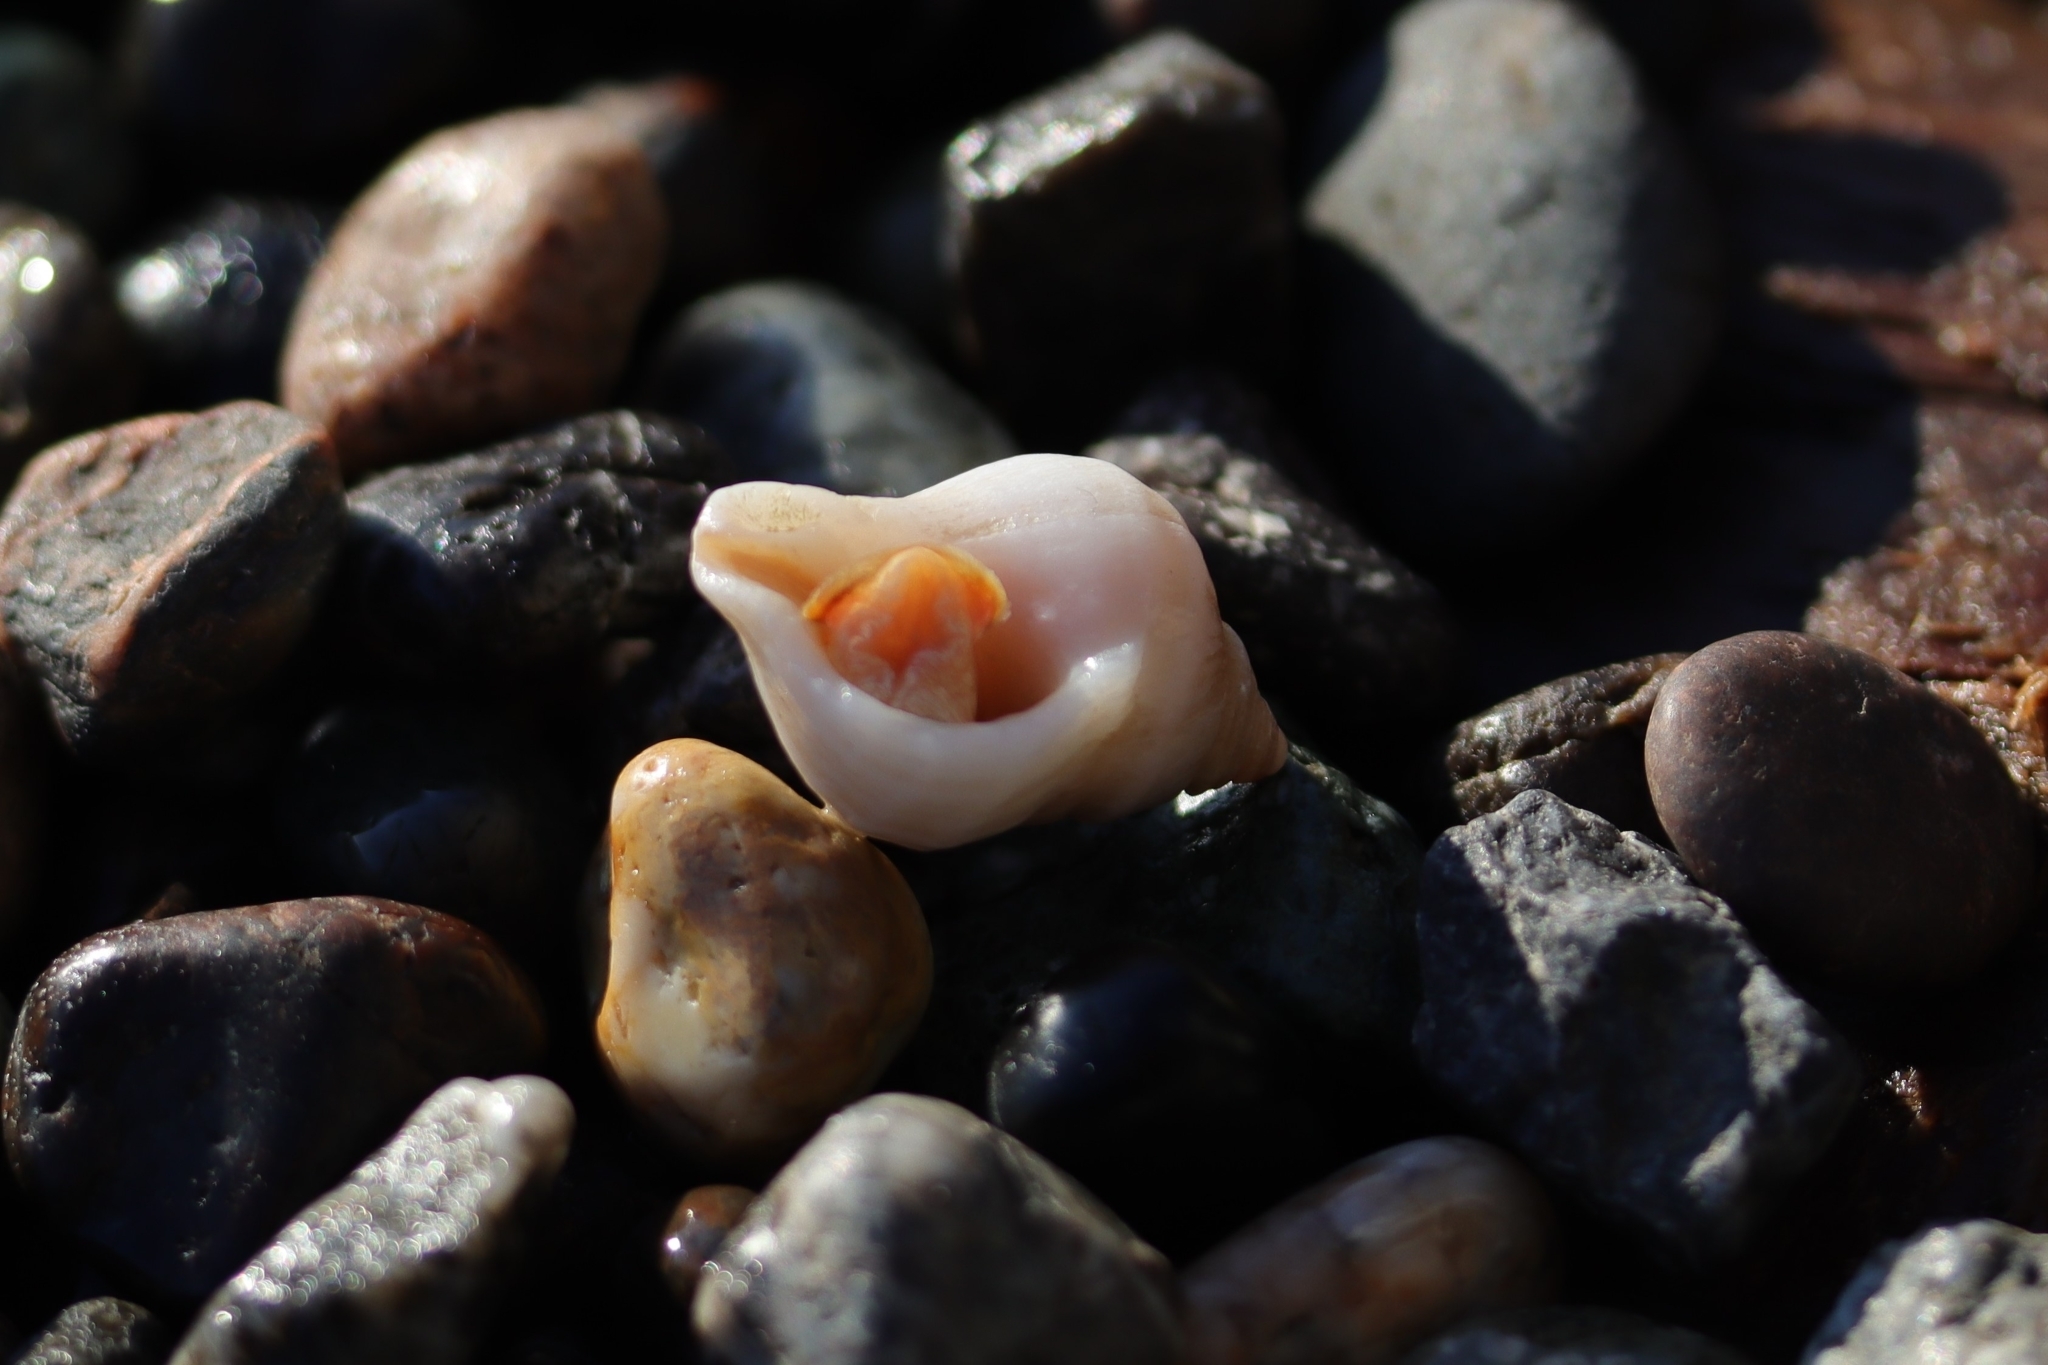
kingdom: Animalia
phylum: Mollusca
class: Gastropoda
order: Neogastropoda
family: Muricidae
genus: Nucella
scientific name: Nucella lamellosa
